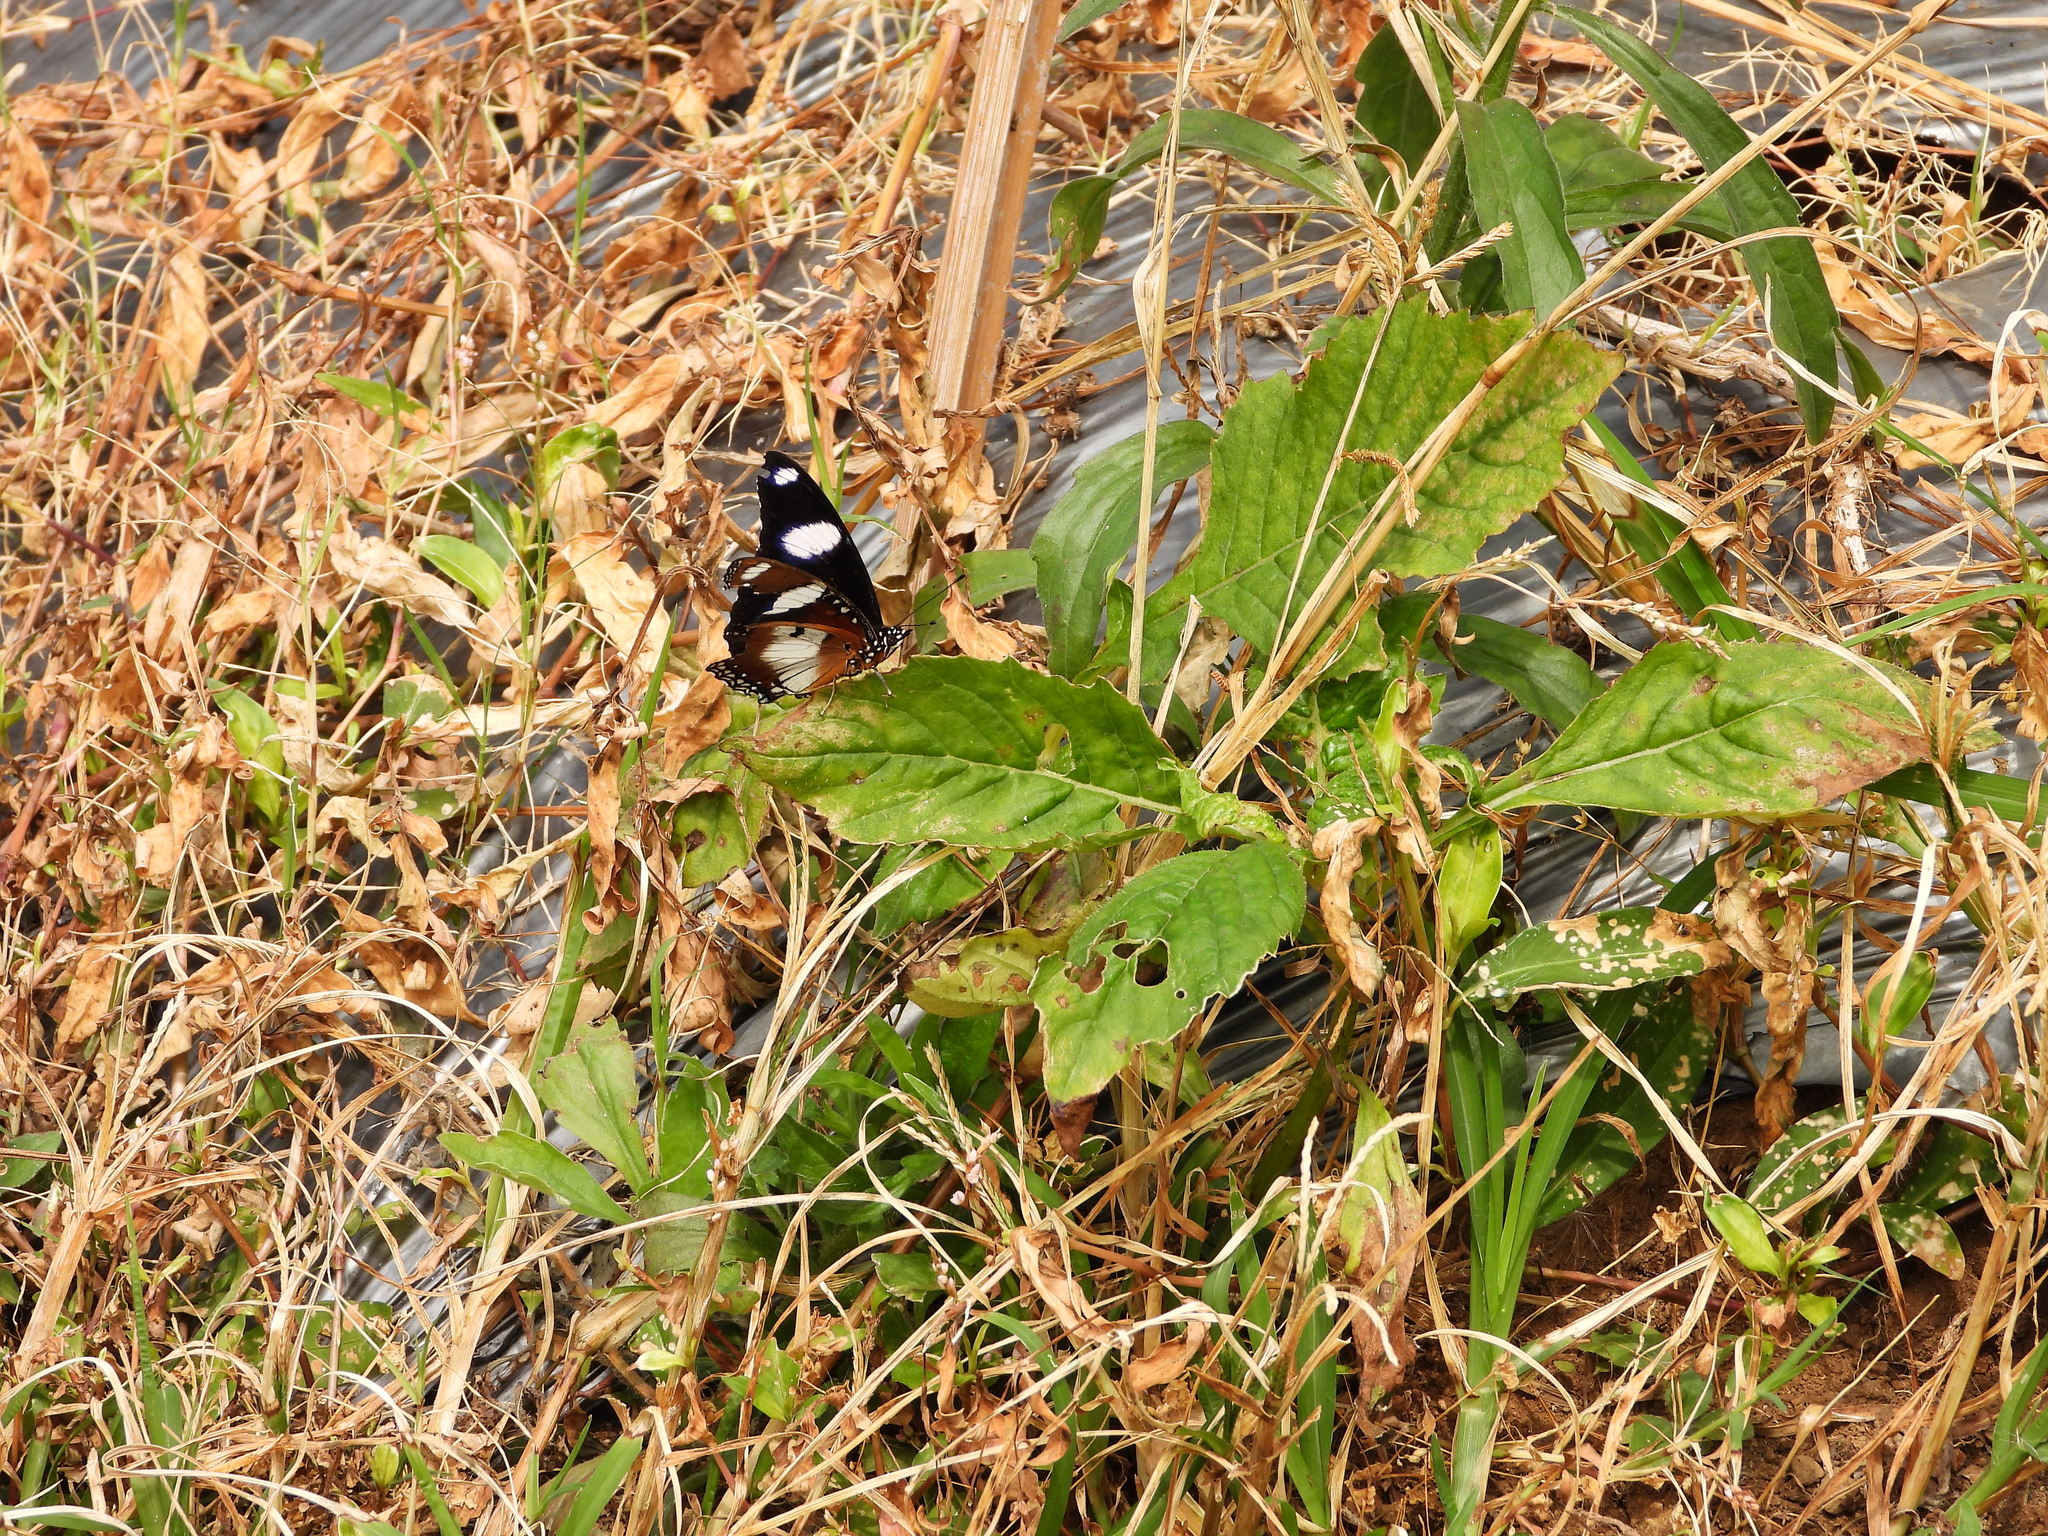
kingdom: Animalia
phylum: Arthropoda
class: Insecta
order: Lepidoptera
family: Nymphalidae
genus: Hypolimnas
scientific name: Hypolimnas misippus
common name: False plain tiger
